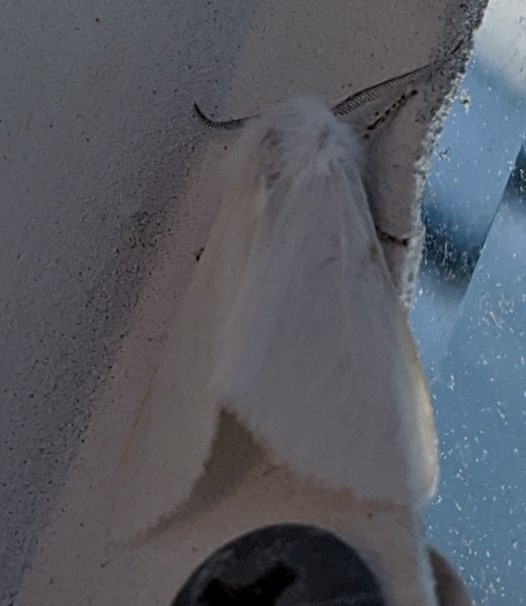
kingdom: Animalia
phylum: Arthropoda
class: Insecta
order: Lepidoptera
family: Erebidae
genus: Hyphantria
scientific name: Hyphantria cunea
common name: American white moth
